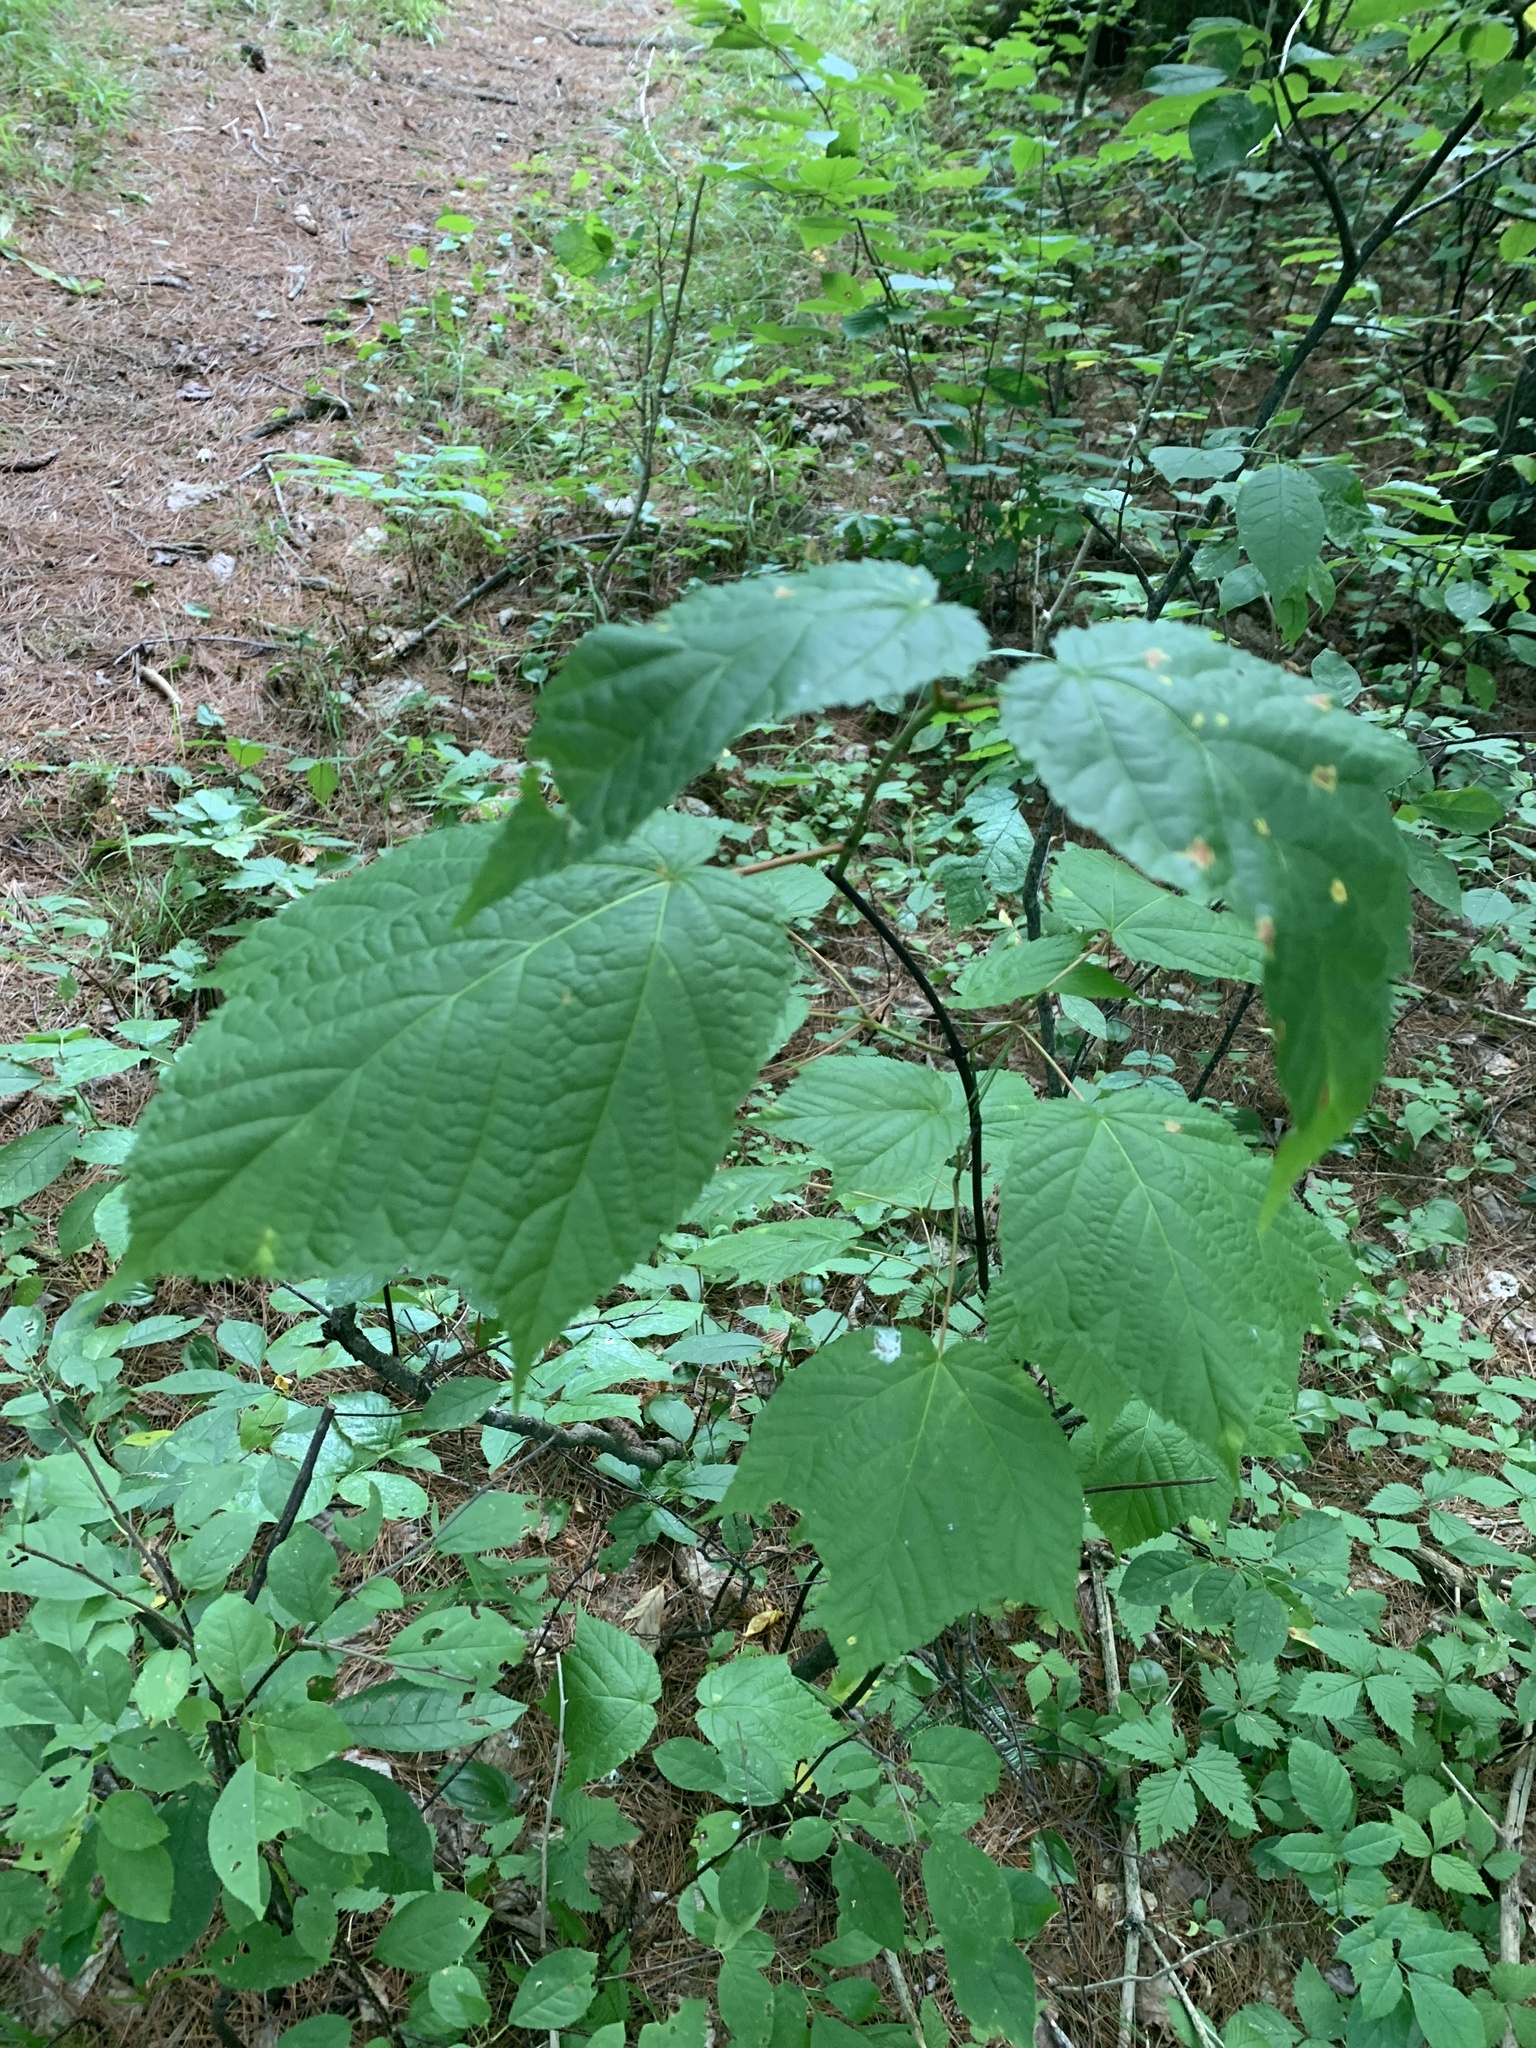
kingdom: Plantae
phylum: Tracheophyta
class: Magnoliopsida
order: Sapindales
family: Sapindaceae
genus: Acer
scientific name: Acer pensylvanicum
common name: Moosewood
